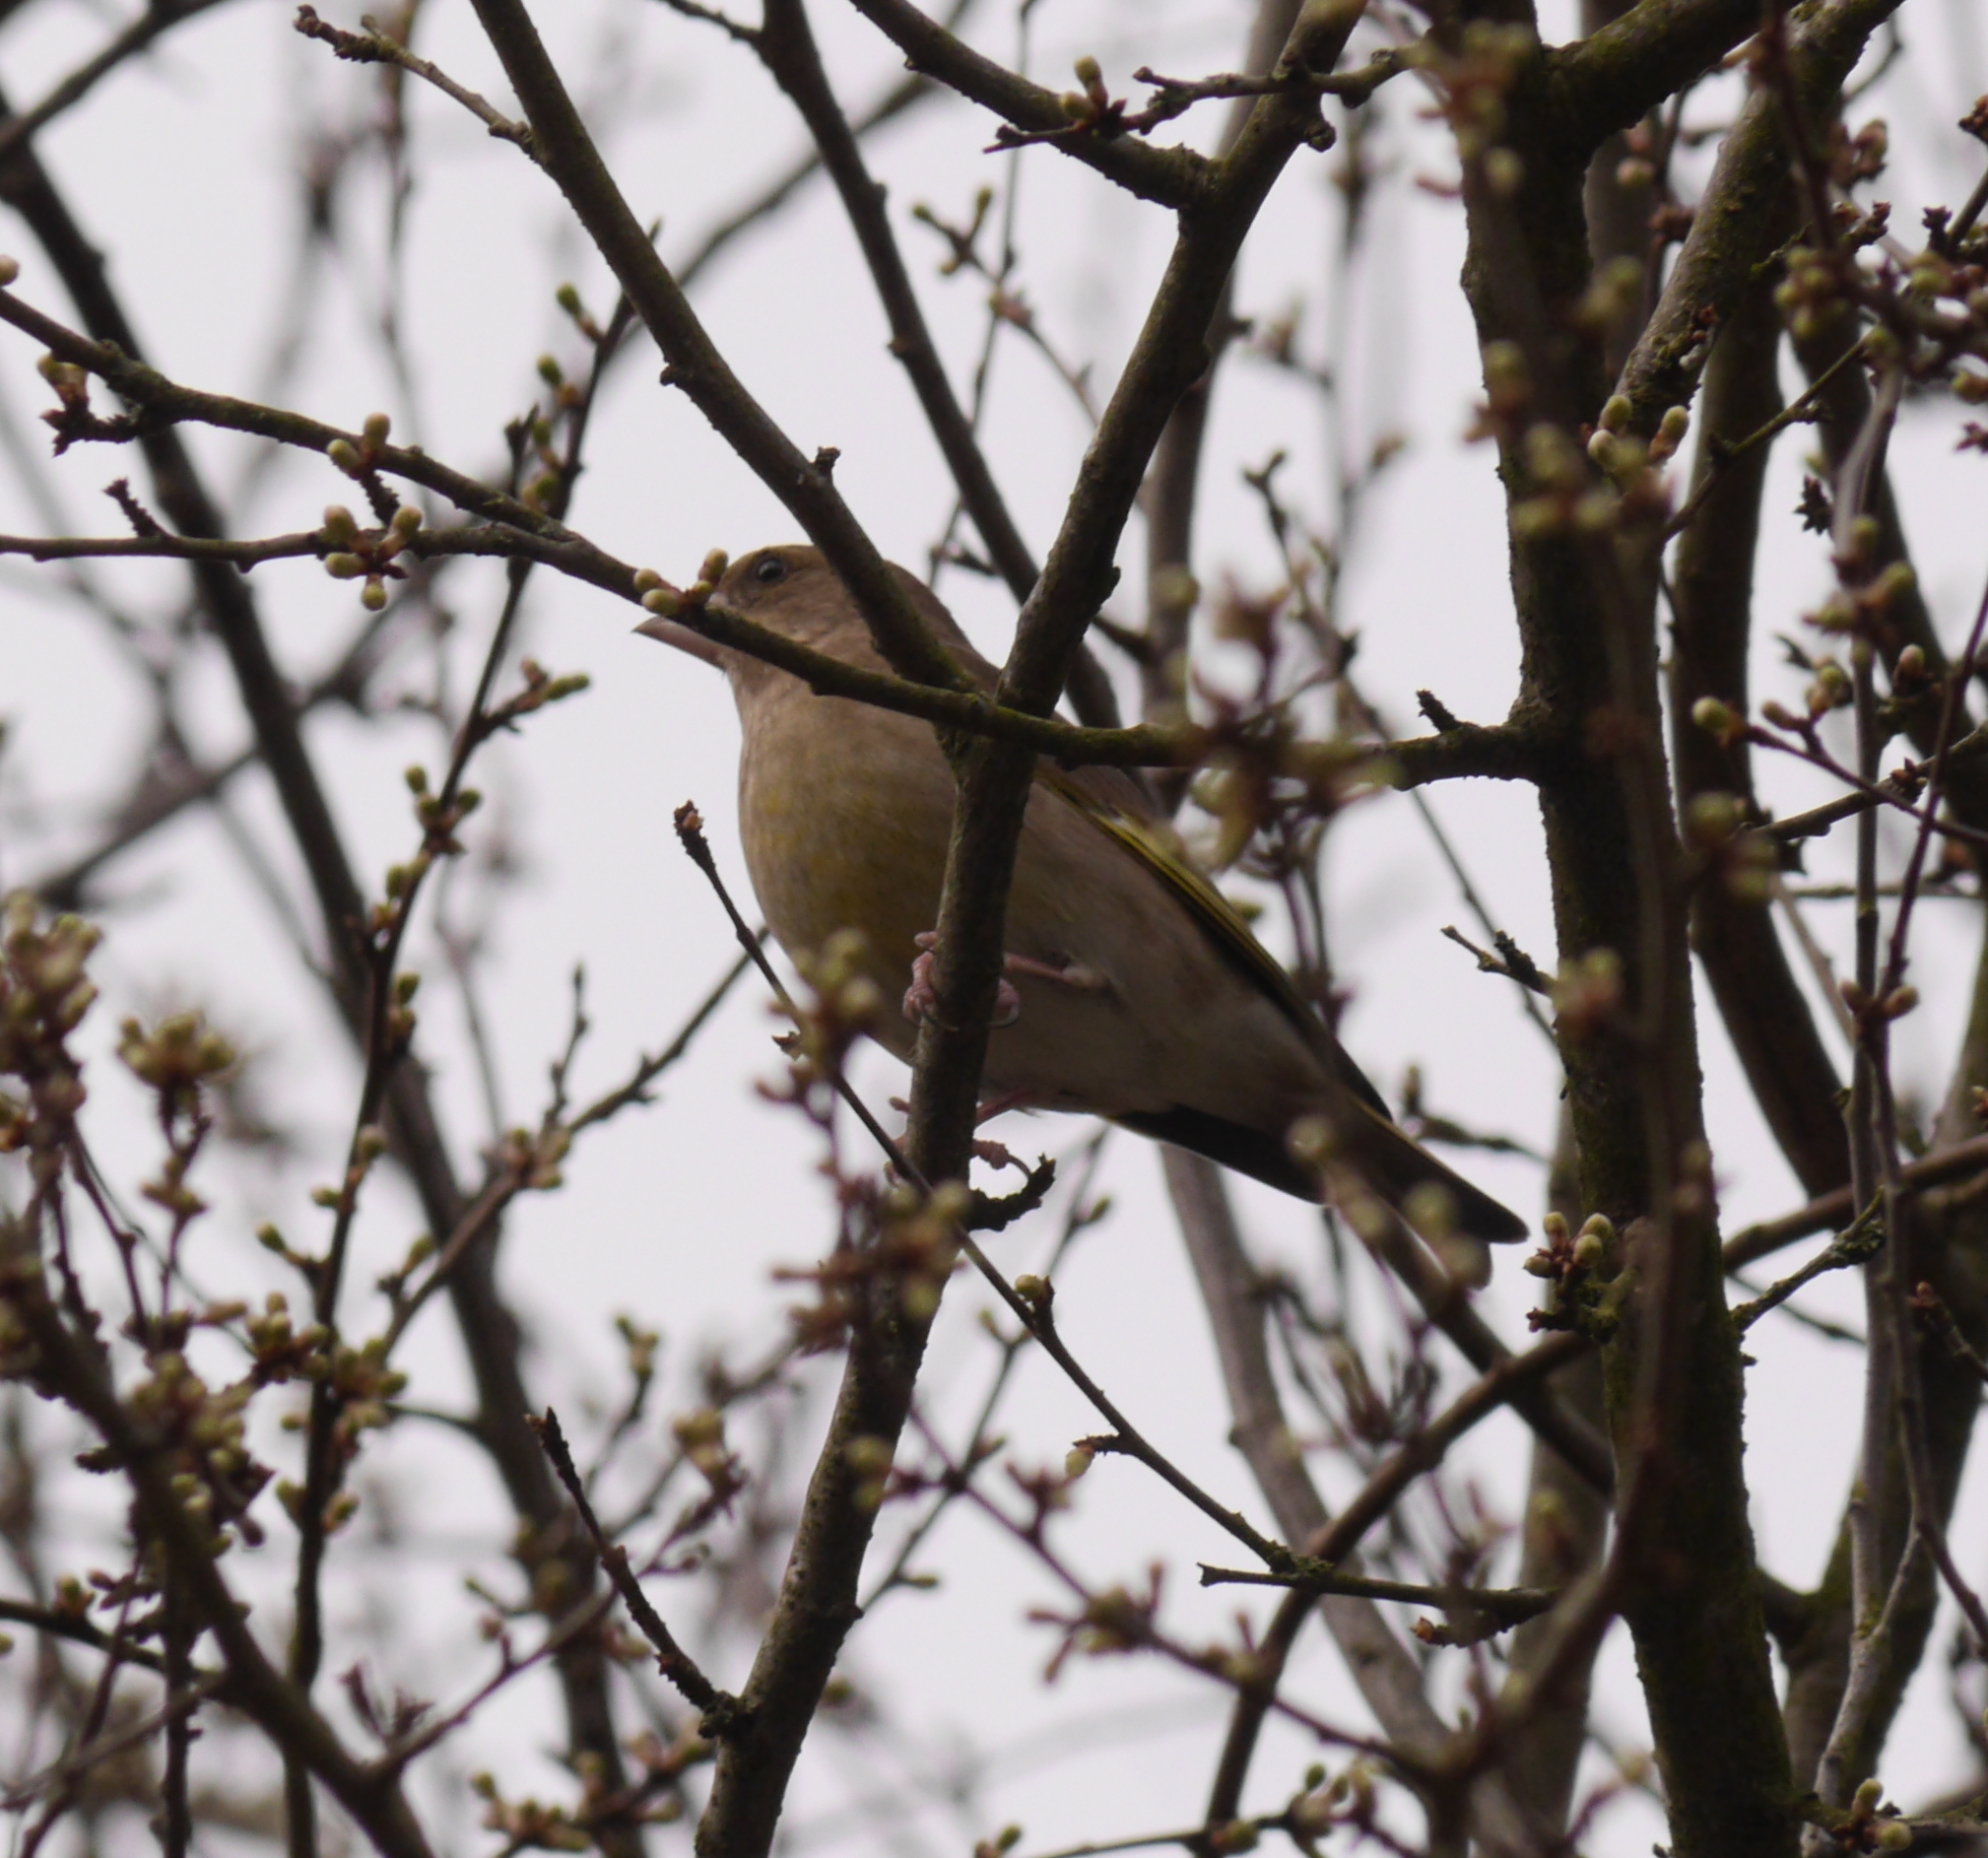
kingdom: Plantae
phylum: Tracheophyta
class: Liliopsida
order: Poales
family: Poaceae
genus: Chloris
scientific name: Chloris chloris
